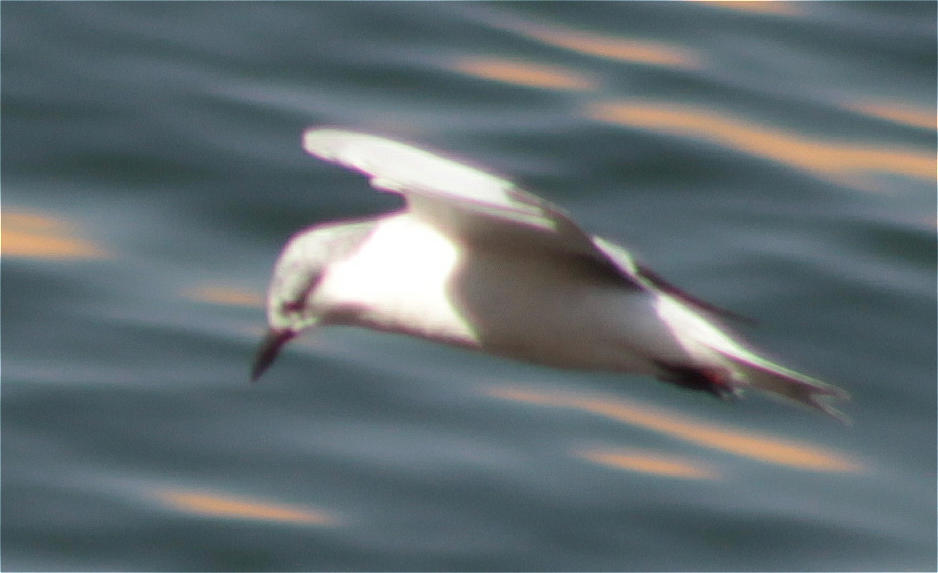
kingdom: Animalia
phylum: Chordata
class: Aves
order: Charadriiformes
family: Laridae
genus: Chlidonias
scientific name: Chlidonias hybrida
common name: Whiskered tern
